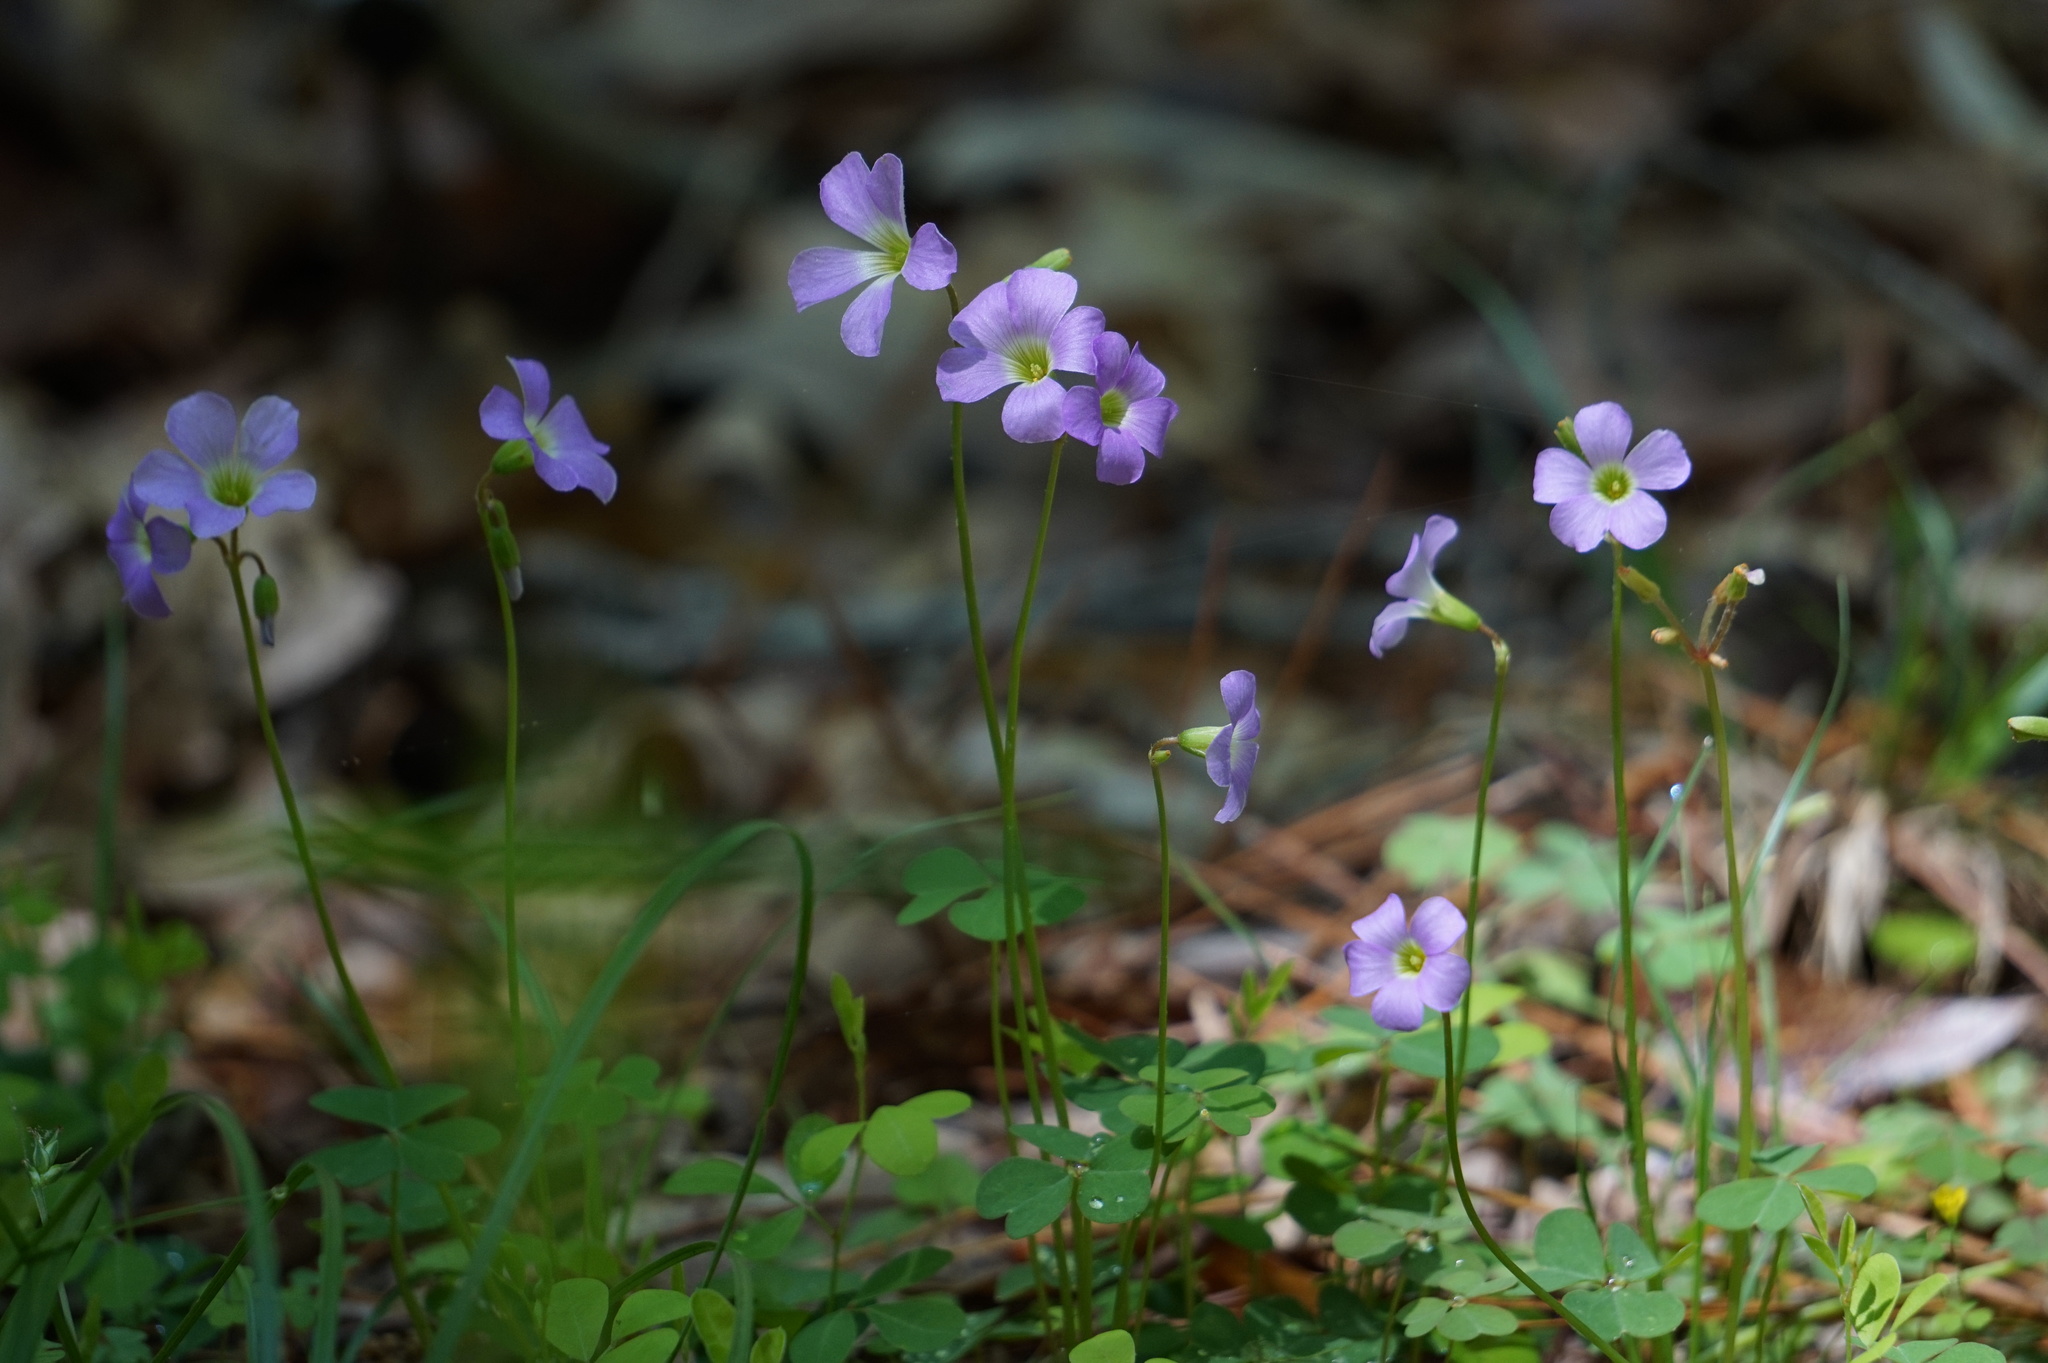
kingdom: Plantae
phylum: Tracheophyta
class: Magnoliopsida
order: Oxalidales
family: Oxalidaceae
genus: Oxalis
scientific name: Oxalis violacea
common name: Violet wood-sorrel
